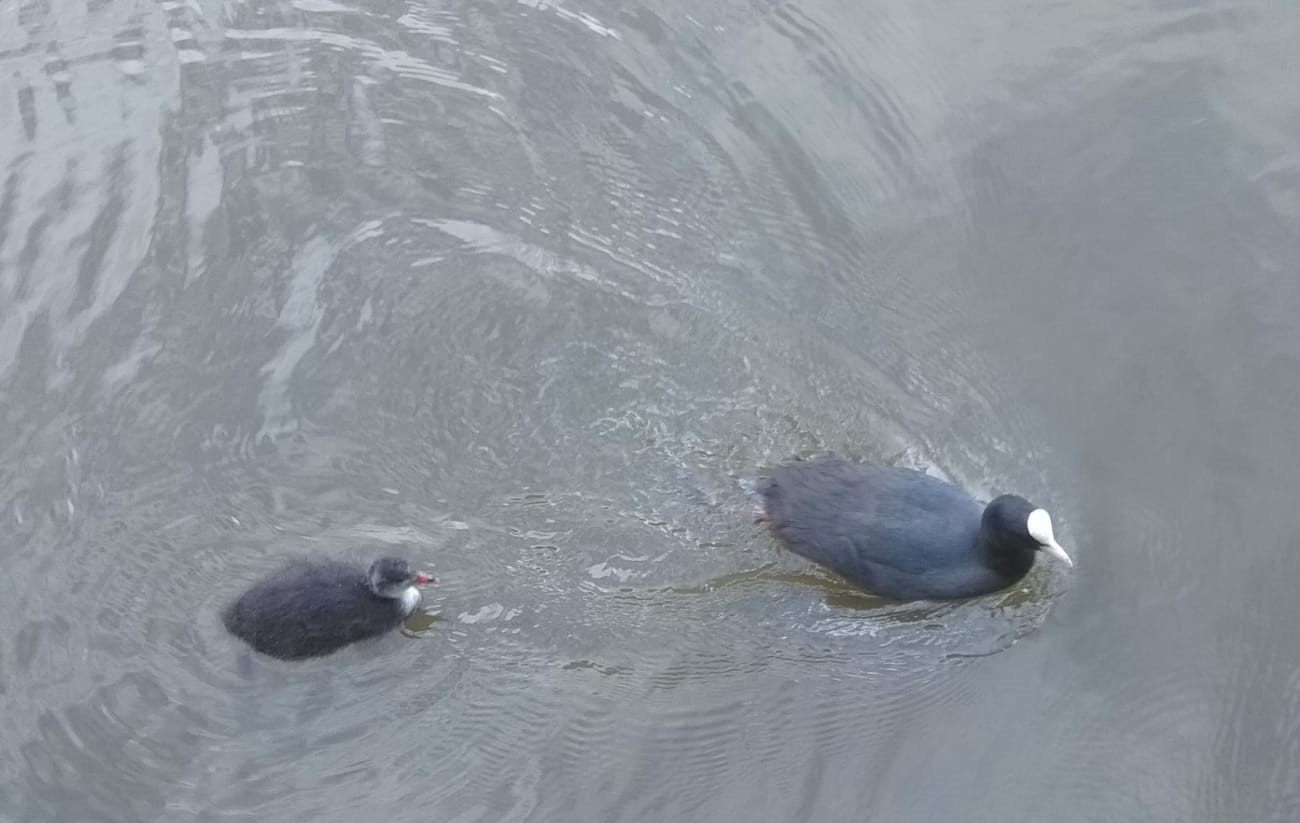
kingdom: Animalia
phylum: Chordata
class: Aves
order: Gruiformes
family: Rallidae
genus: Fulica
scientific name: Fulica atra
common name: Eurasian coot
